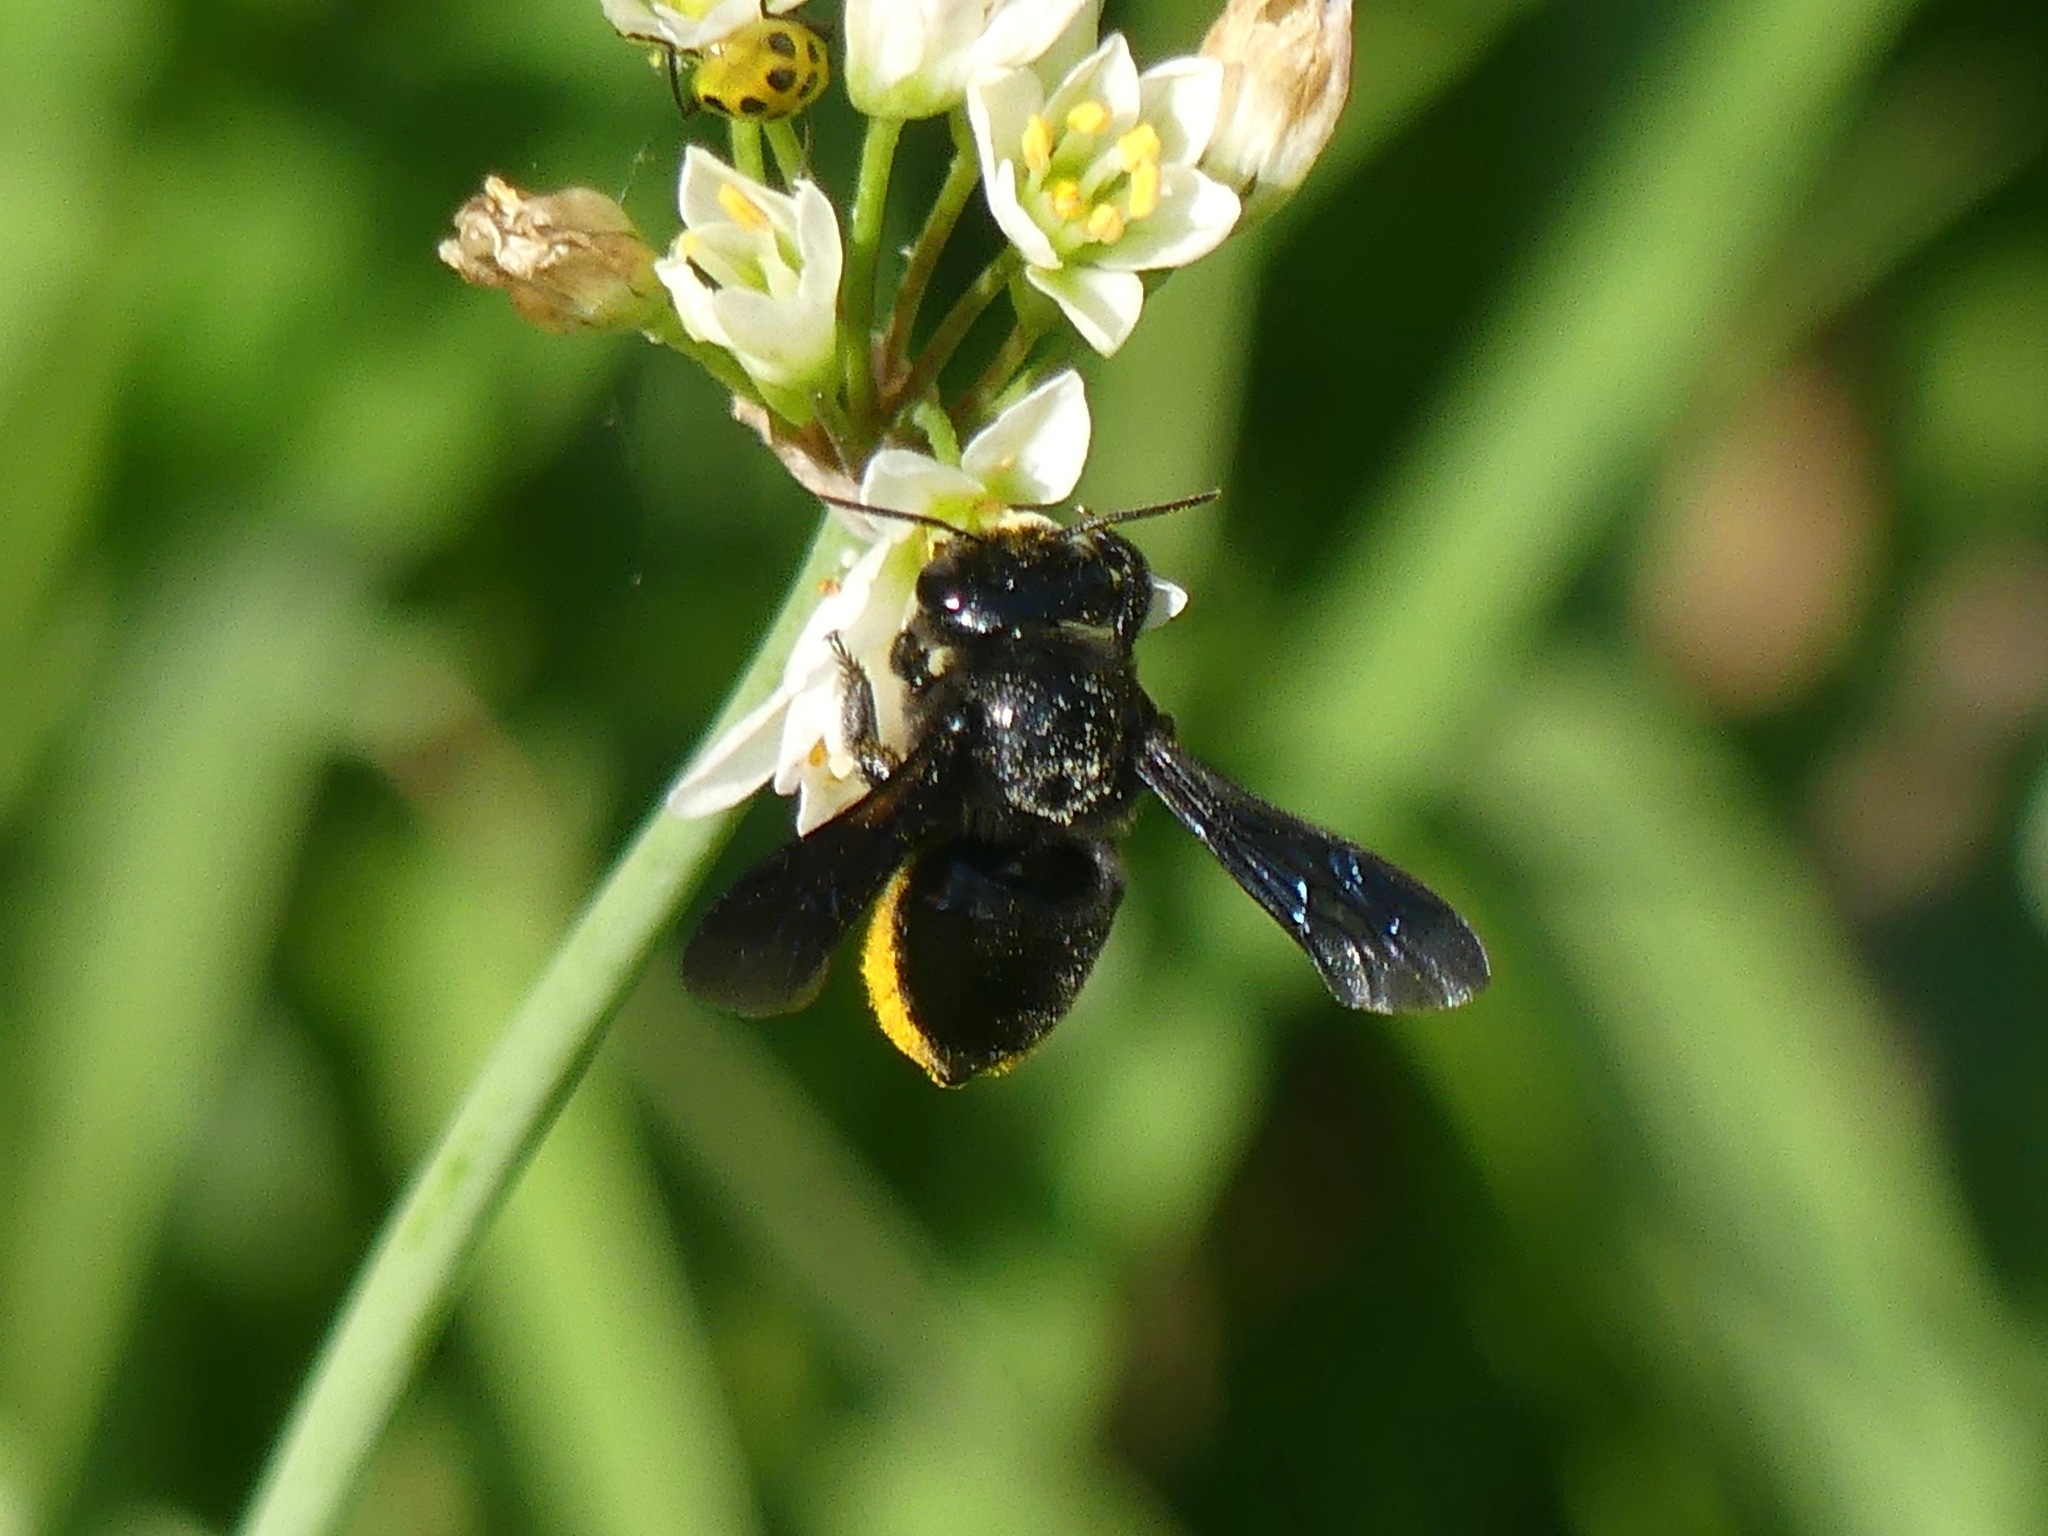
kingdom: Animalia
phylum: Arthropoda
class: Insecta
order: Hymenoptera
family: Megachilidae
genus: Megachile
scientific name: Megachile xylocopoides
